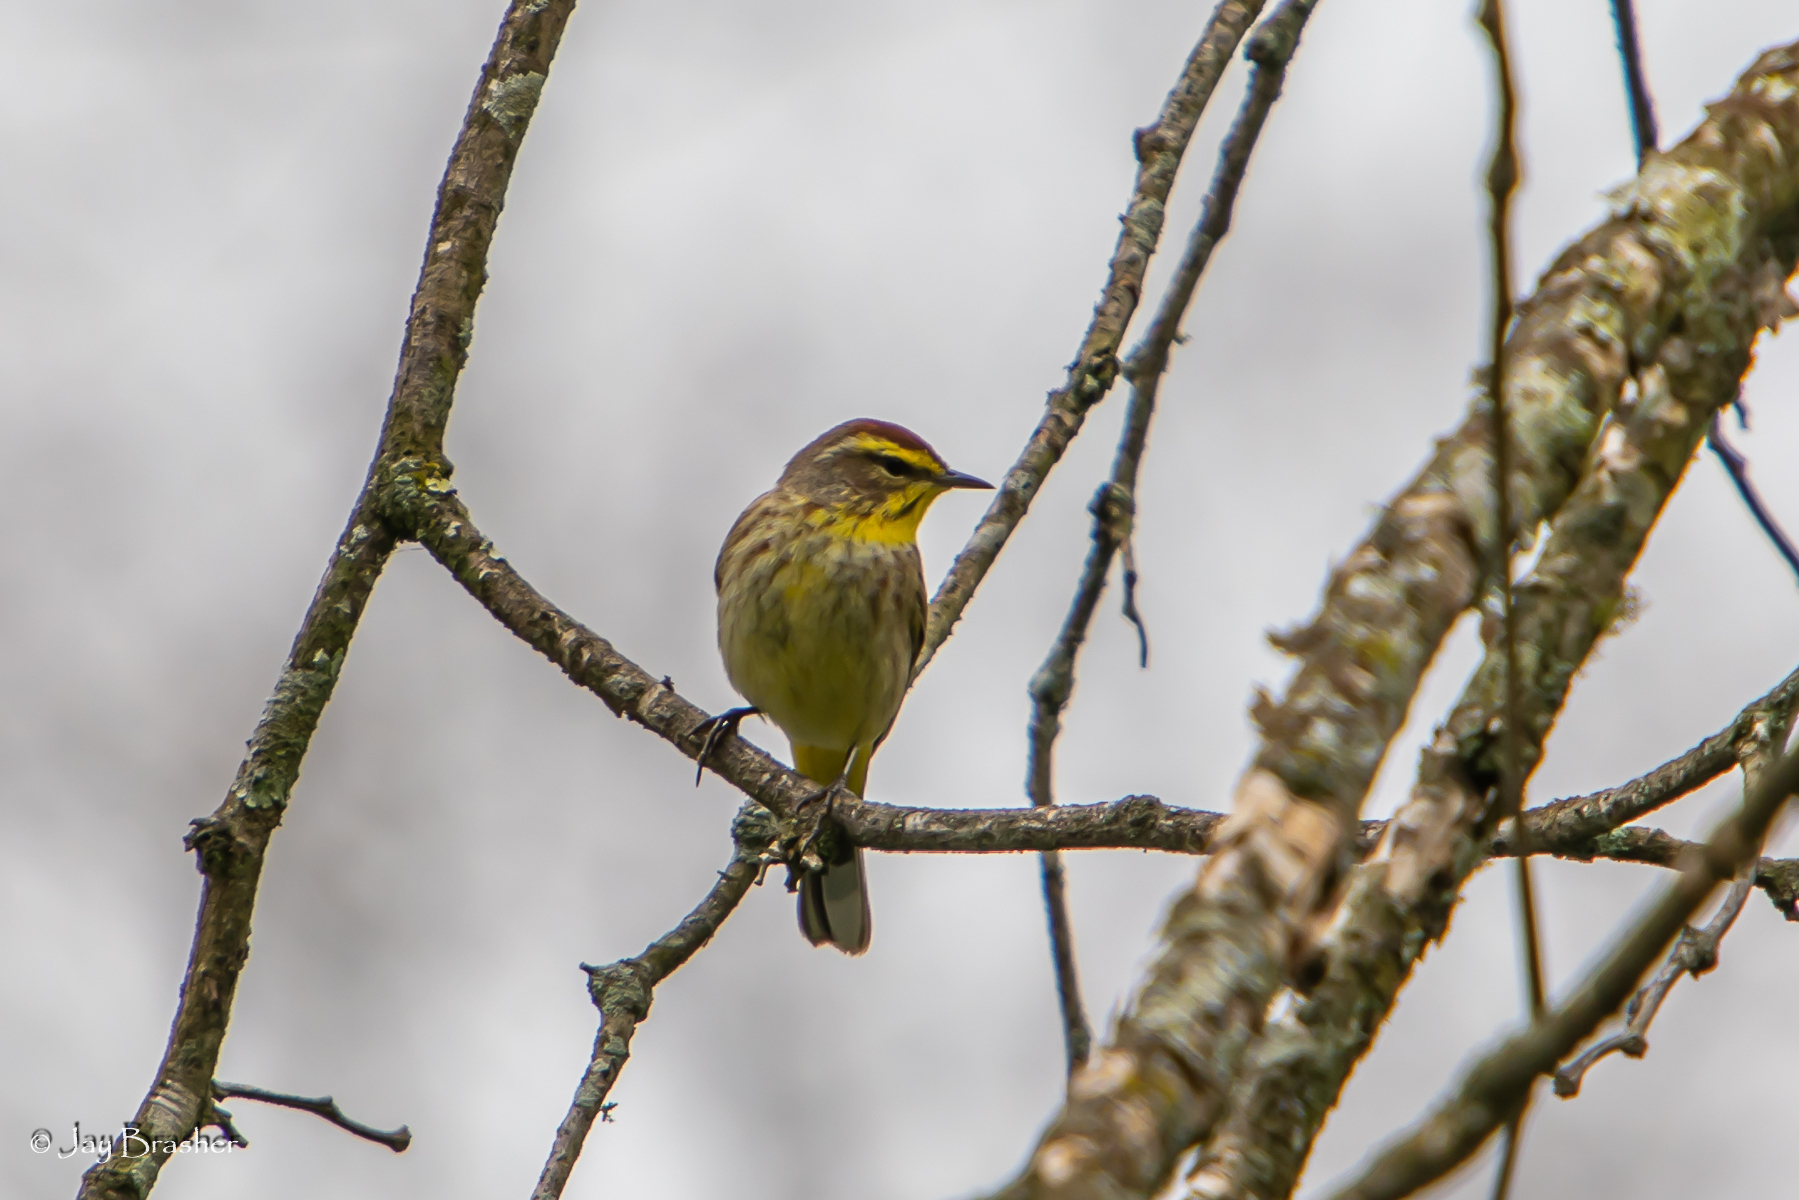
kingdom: Animalia
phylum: Chordata
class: Aves
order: Passeriformes
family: Parulidae
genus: Setophaga
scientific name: Setophaga palmarum
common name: Palm warbler
